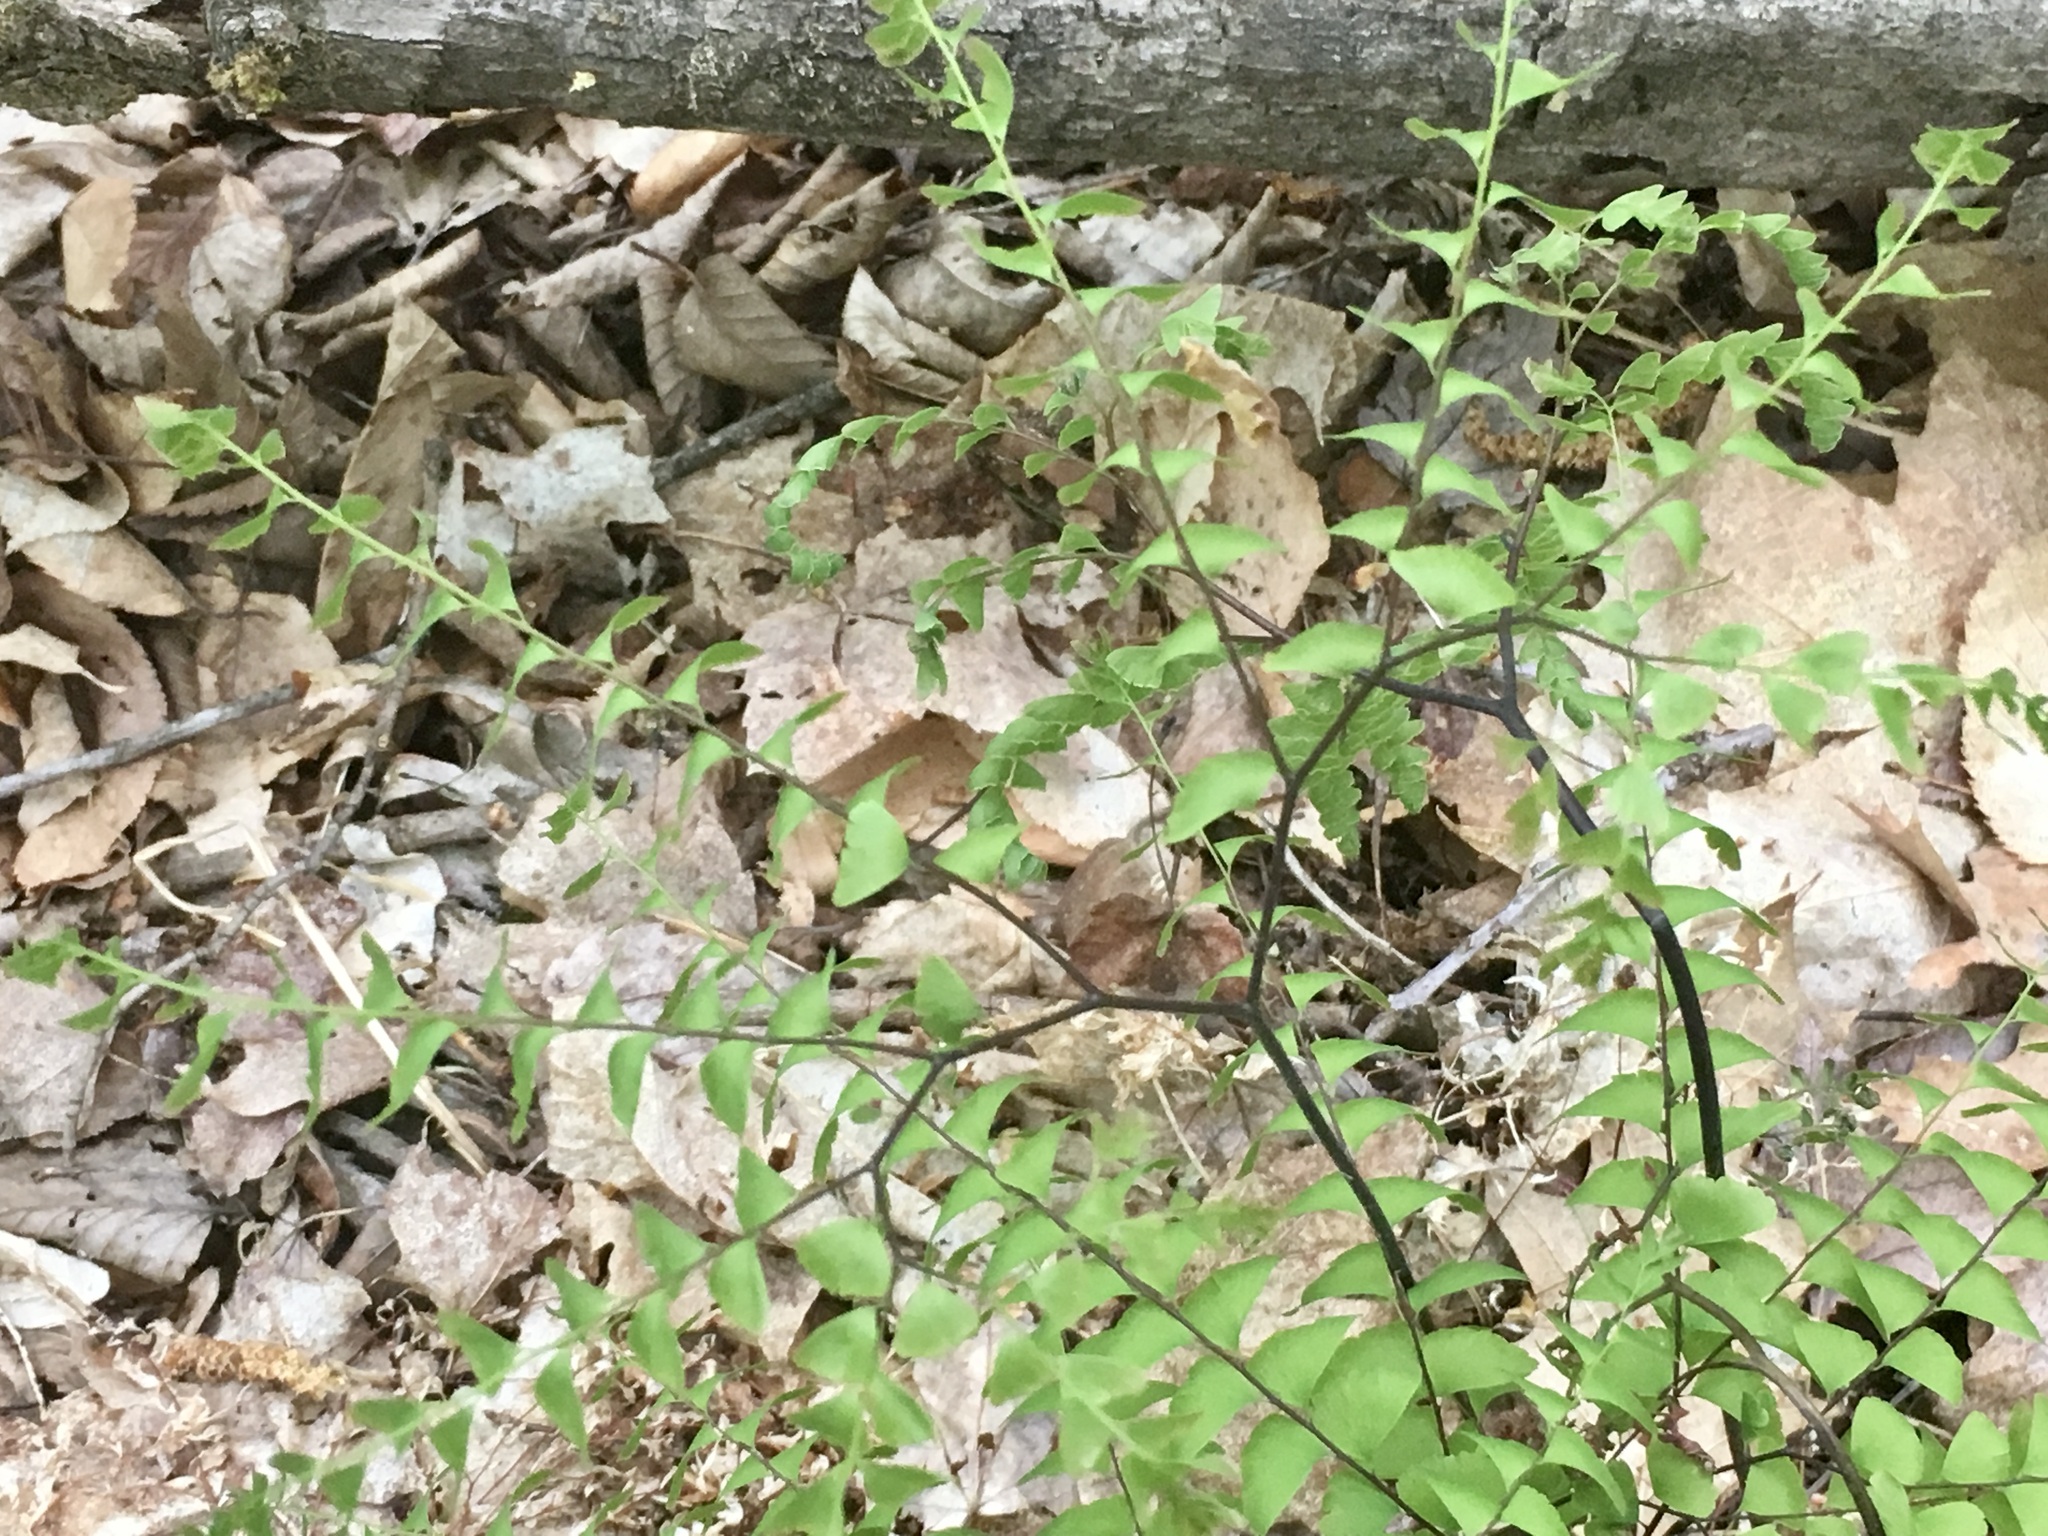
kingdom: Plantae
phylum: Tracheophyta
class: Polypodiopsida
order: Polypodiales
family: Pteridaceae
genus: Adiantum
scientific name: Adiantum pedatum
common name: Five-finger fern
